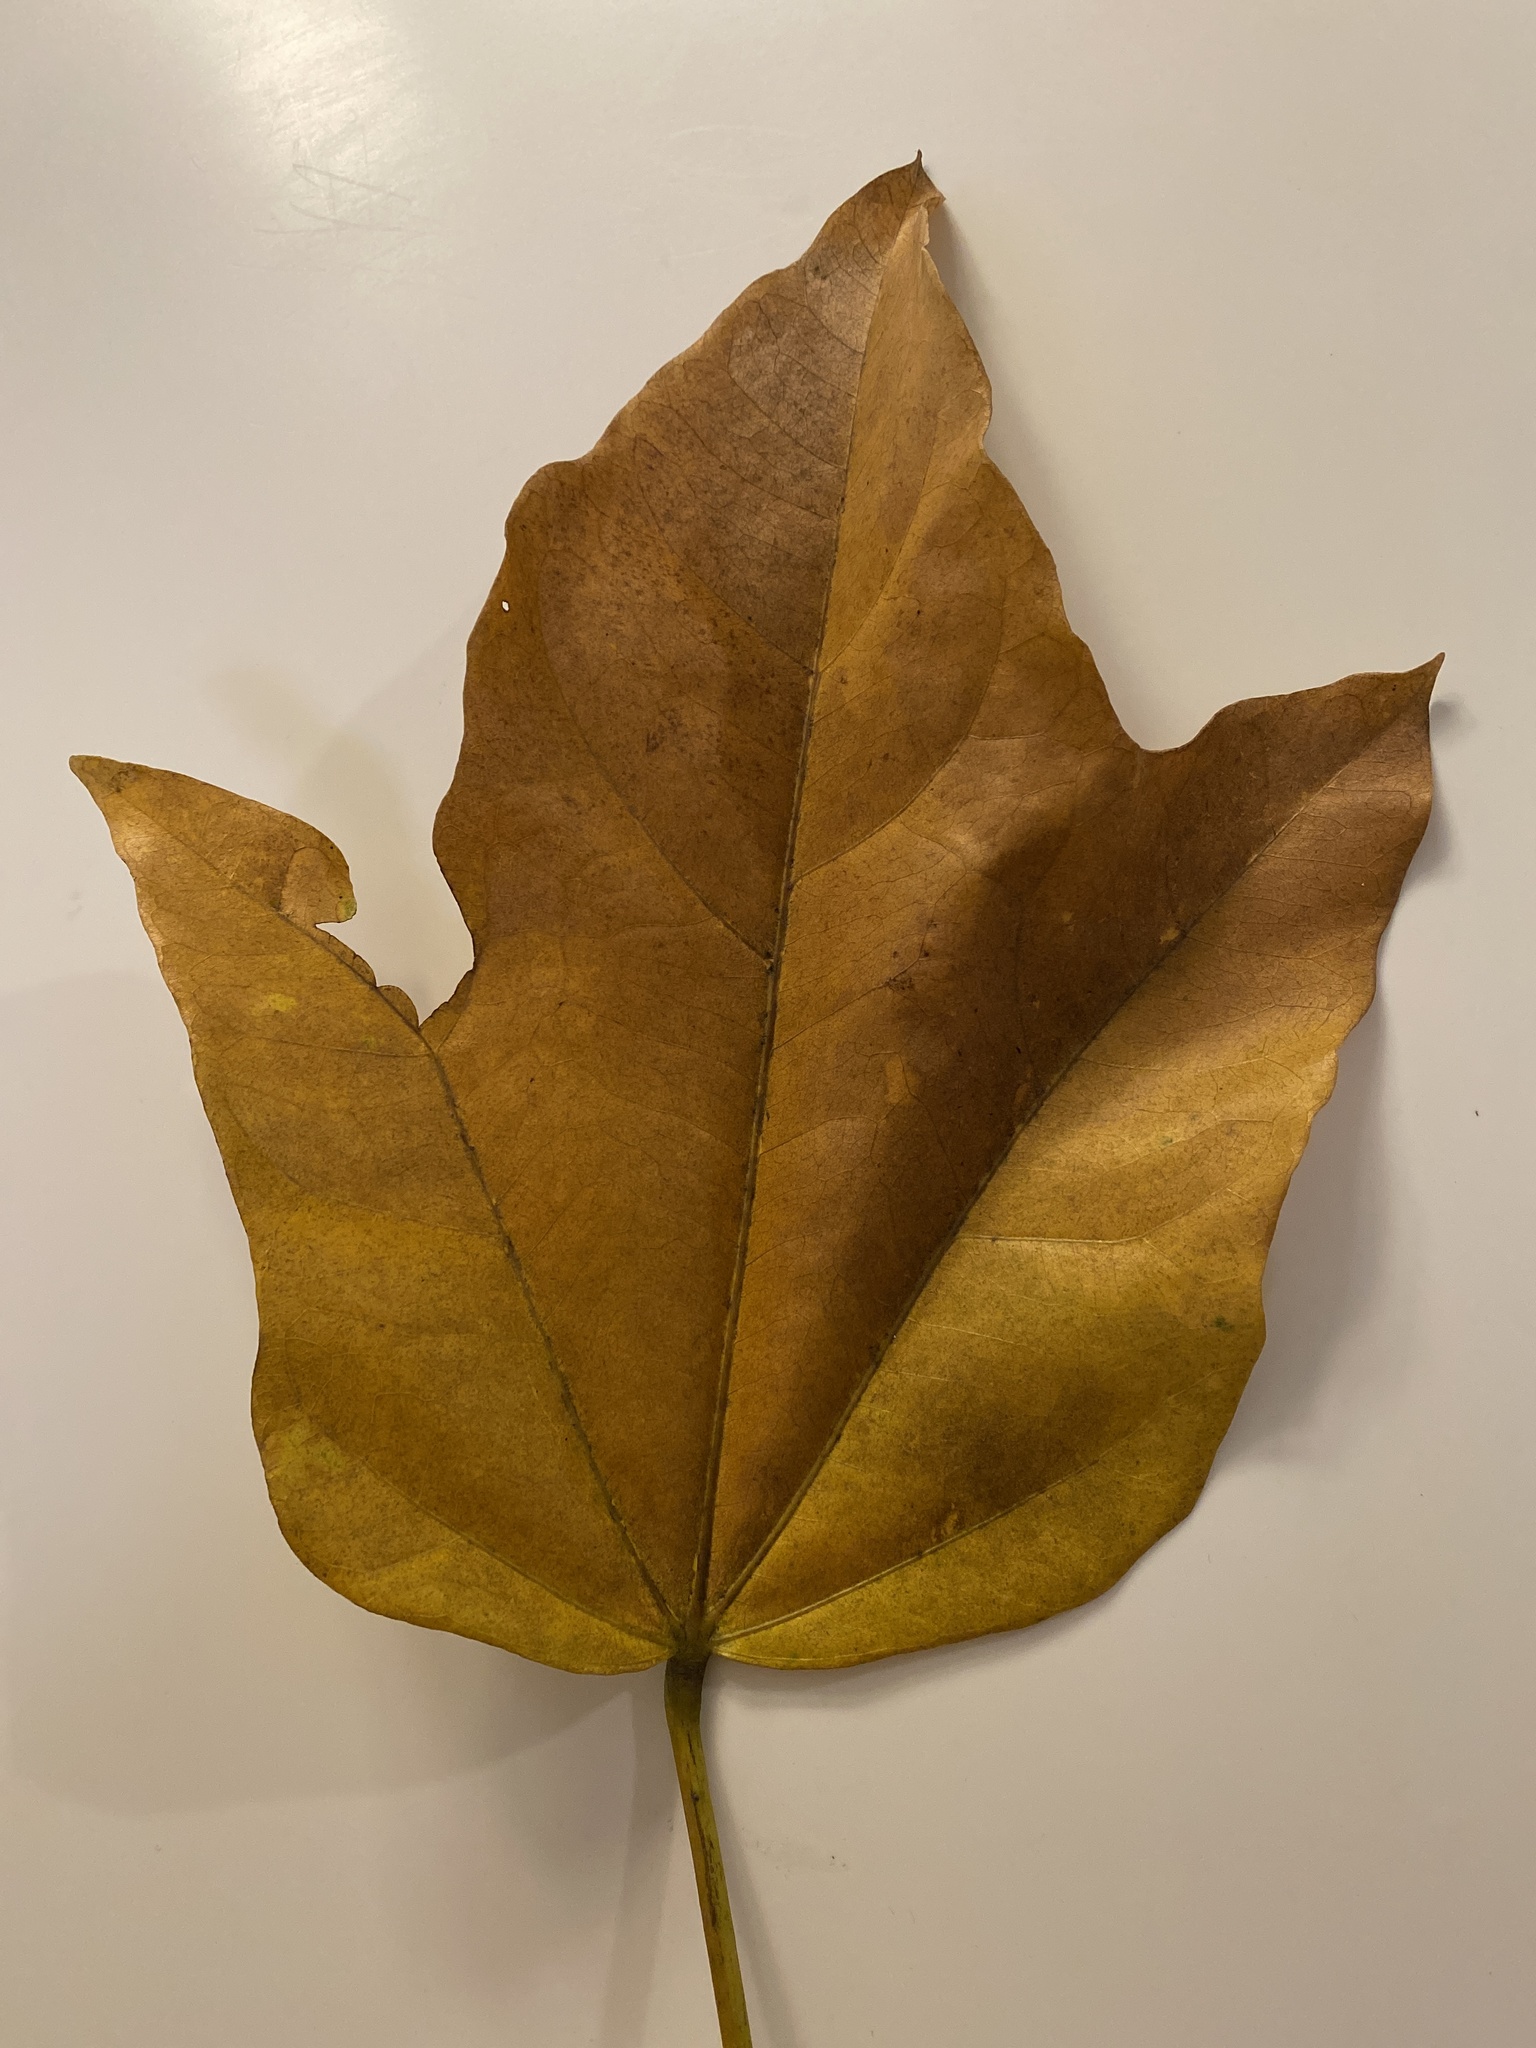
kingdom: Plantae
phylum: Tracheophyta
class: Magnoliopsida
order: Malpighiales
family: Euphorbiaceae
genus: Aleurites
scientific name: Aleurites moluccanus
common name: Candlenut tree
